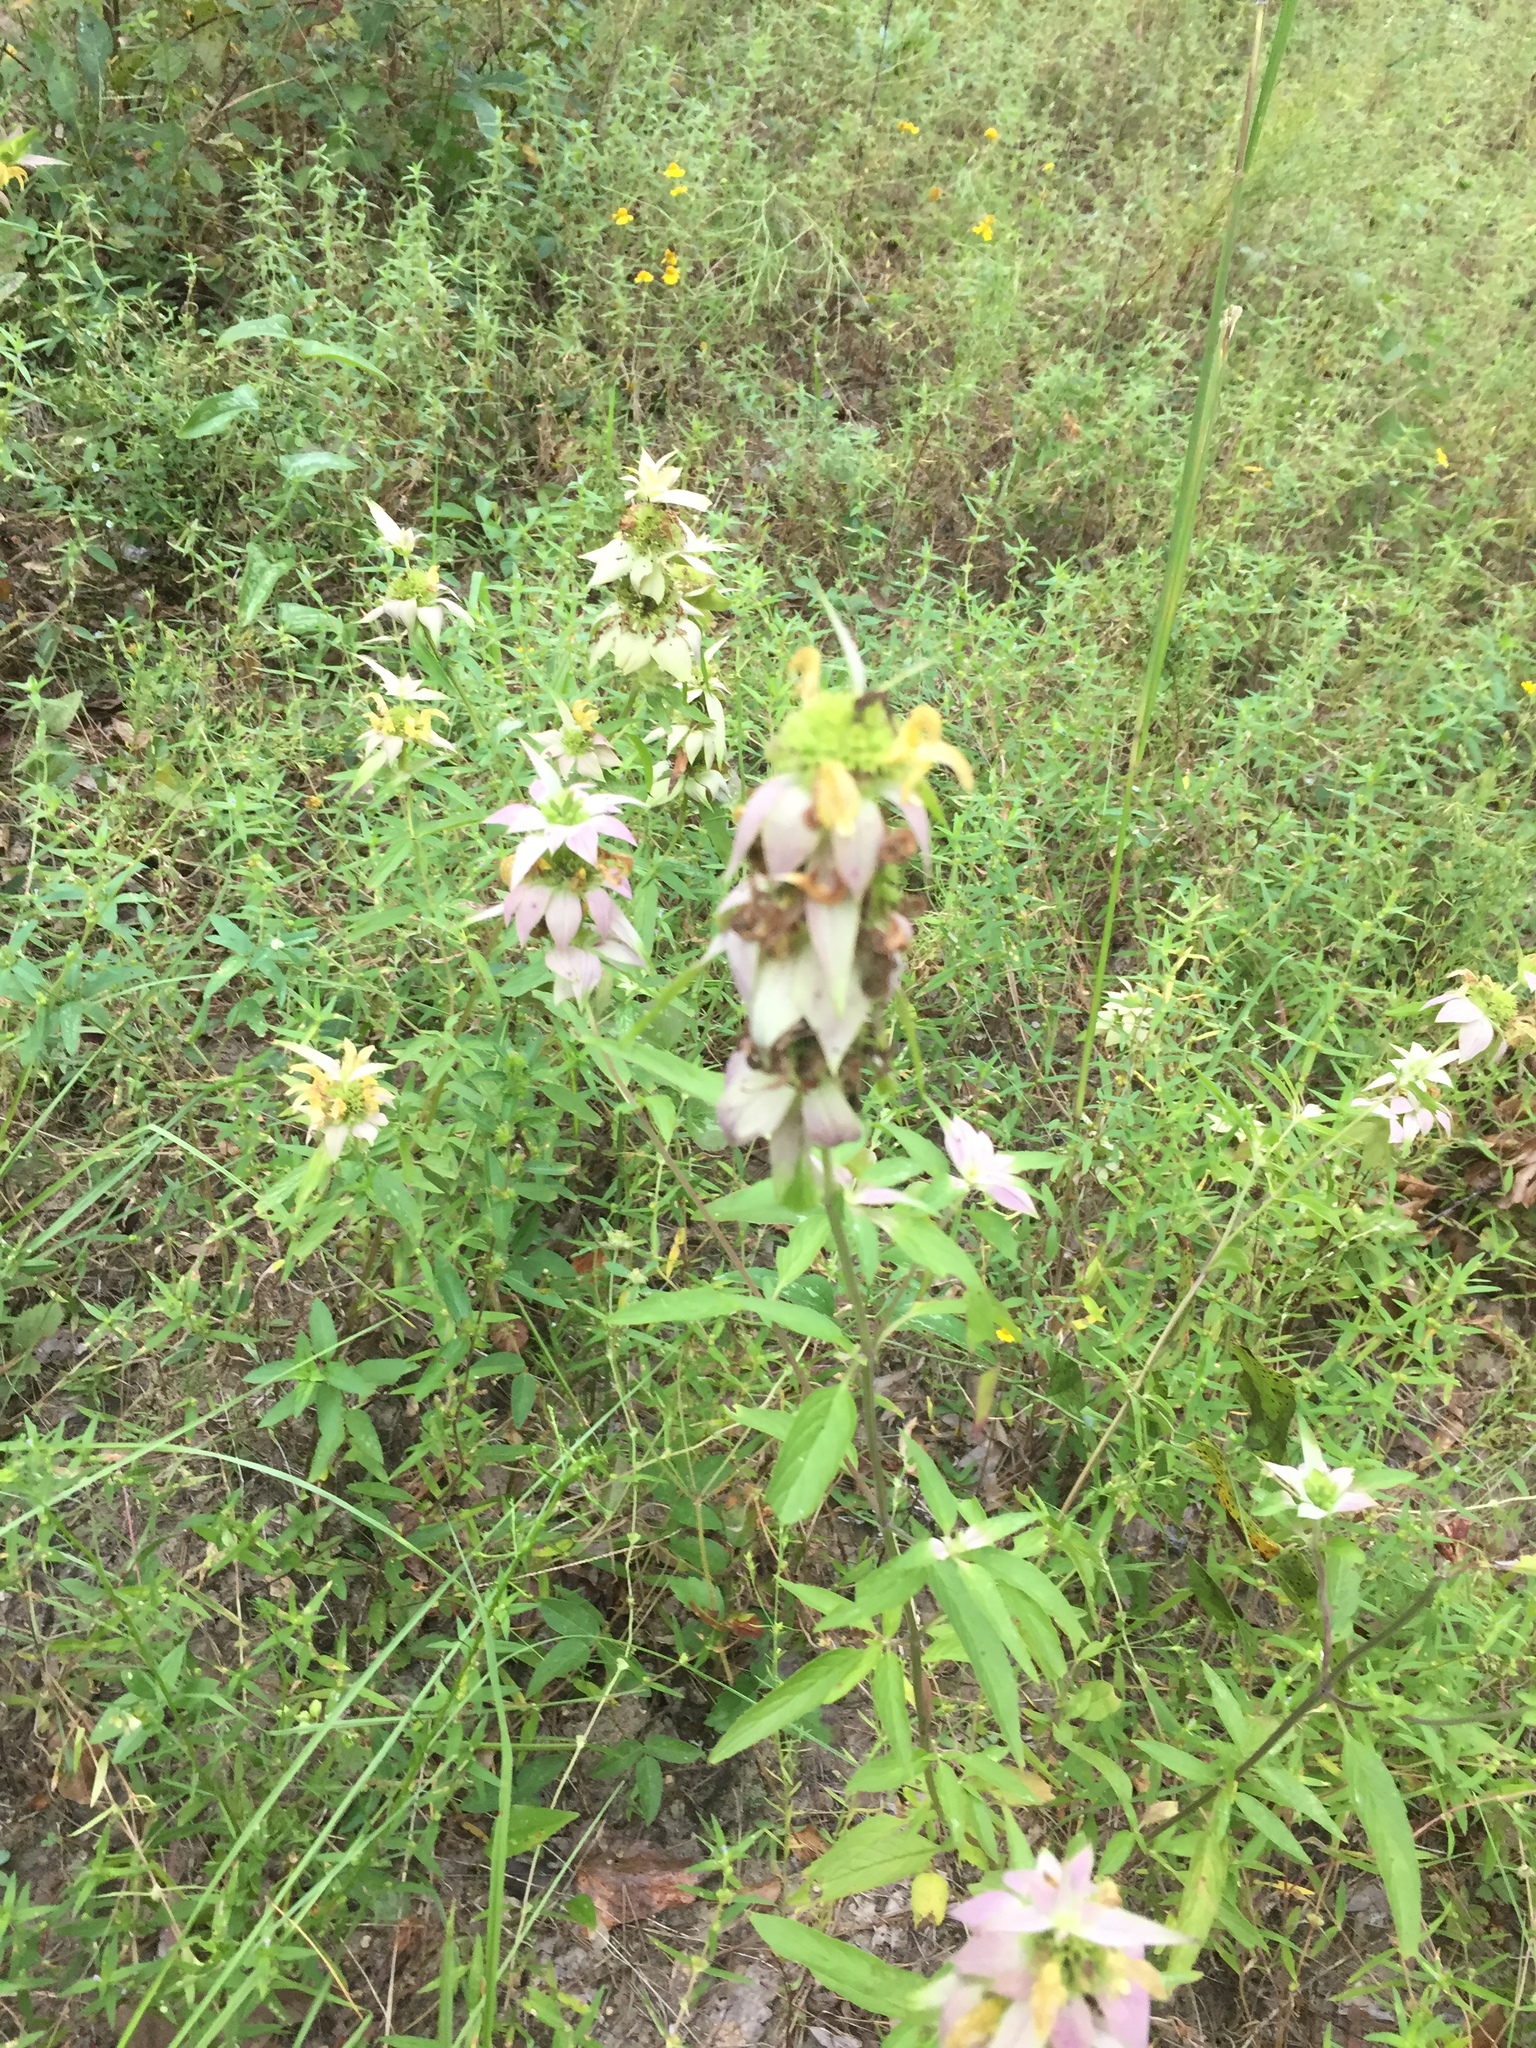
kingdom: Plantae
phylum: Tracheophyta
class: Magnoliopsida
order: Lamiales
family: Lamiaceae
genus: Monarda
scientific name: Monarda punctata
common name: Dotted monarda
